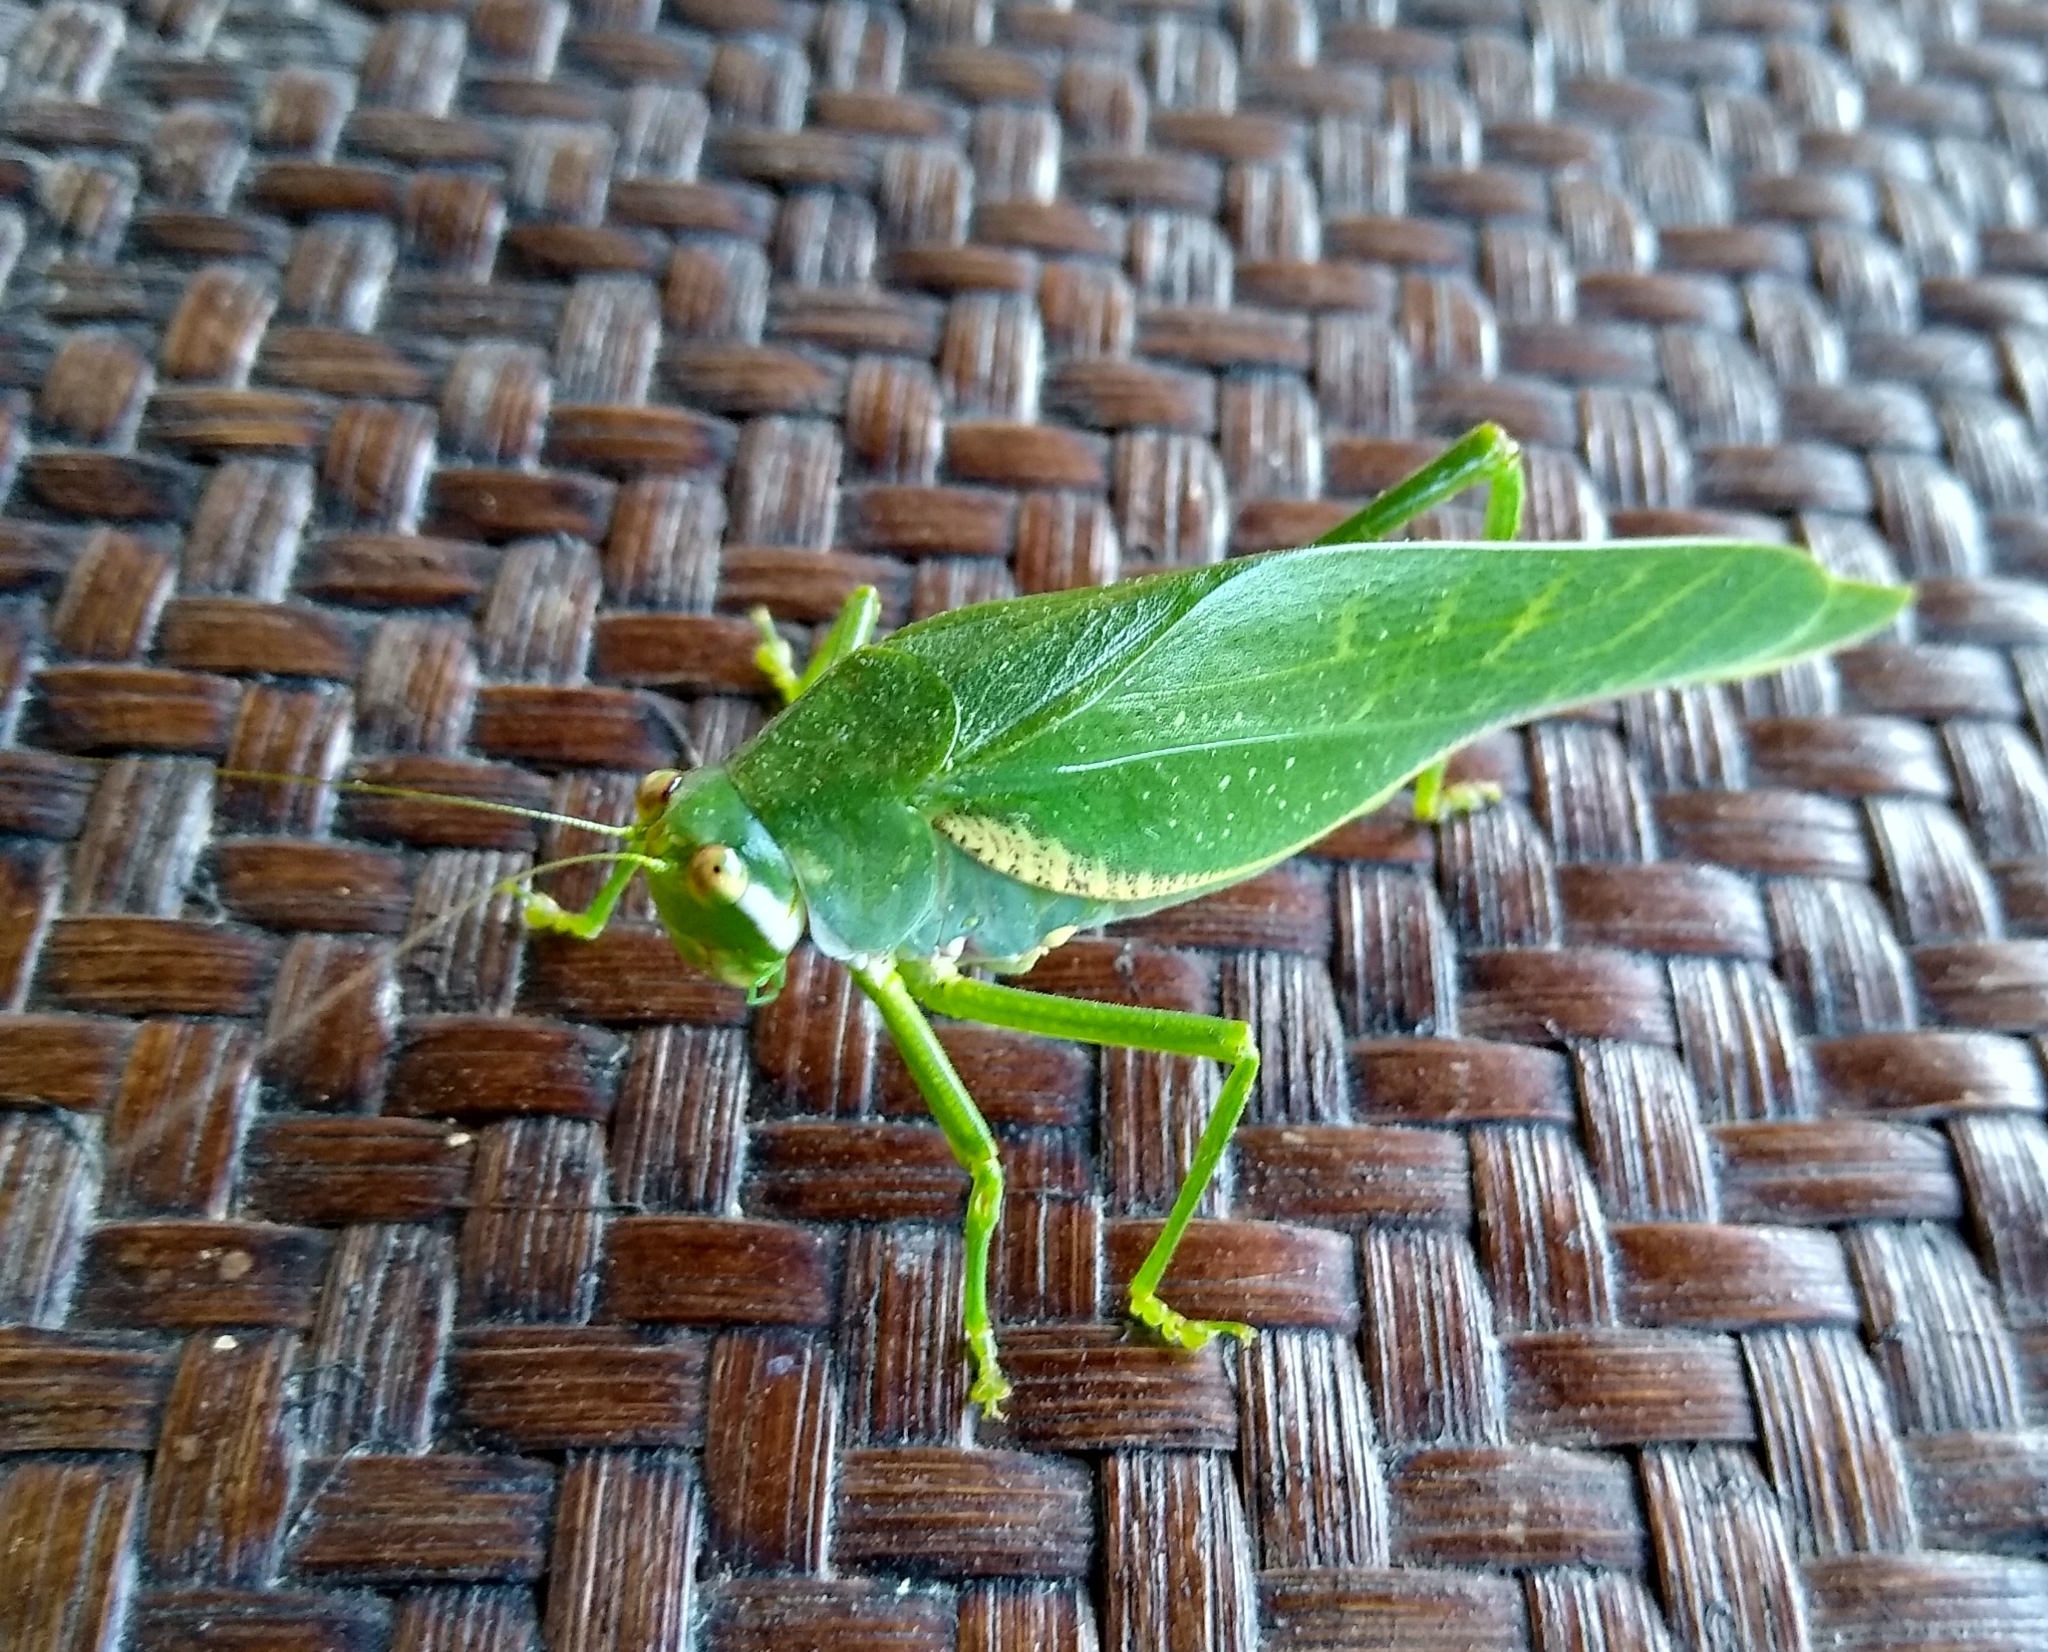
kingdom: Animalia
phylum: Arthropoda
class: Insecta
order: Orthoptera
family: Tettigoniidae
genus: Philophyllia
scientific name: Philophyllia guttulata
